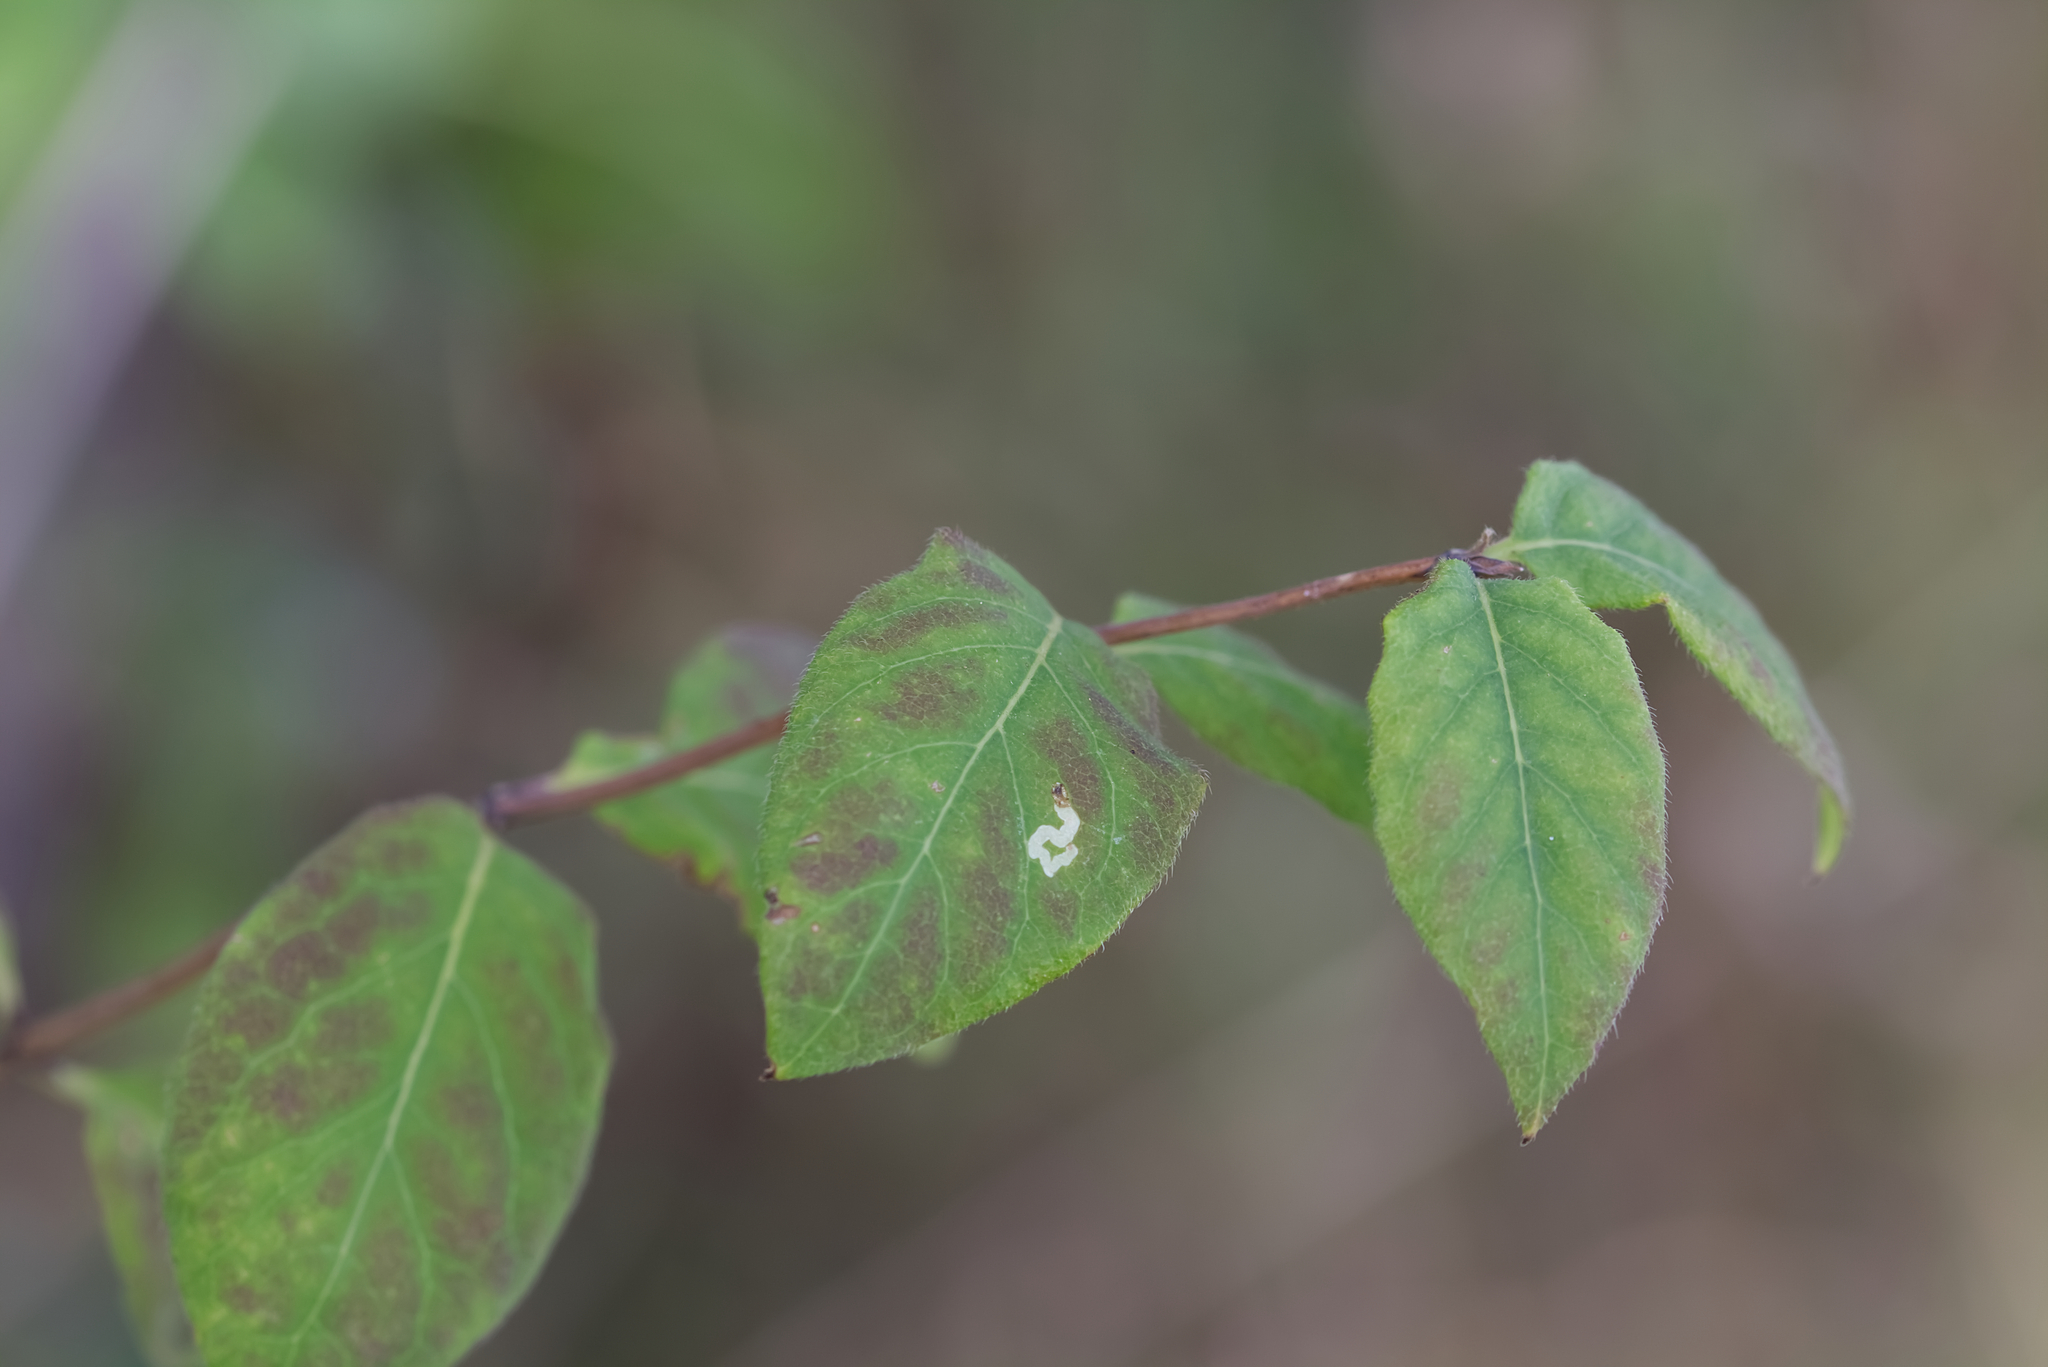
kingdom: Plantae
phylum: Tracheophyta
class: Magnoliopsida
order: Dipsacales
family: Caprifoliaceae
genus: Lonicera
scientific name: Lonicera xylosteum
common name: Fly honeysuckle
